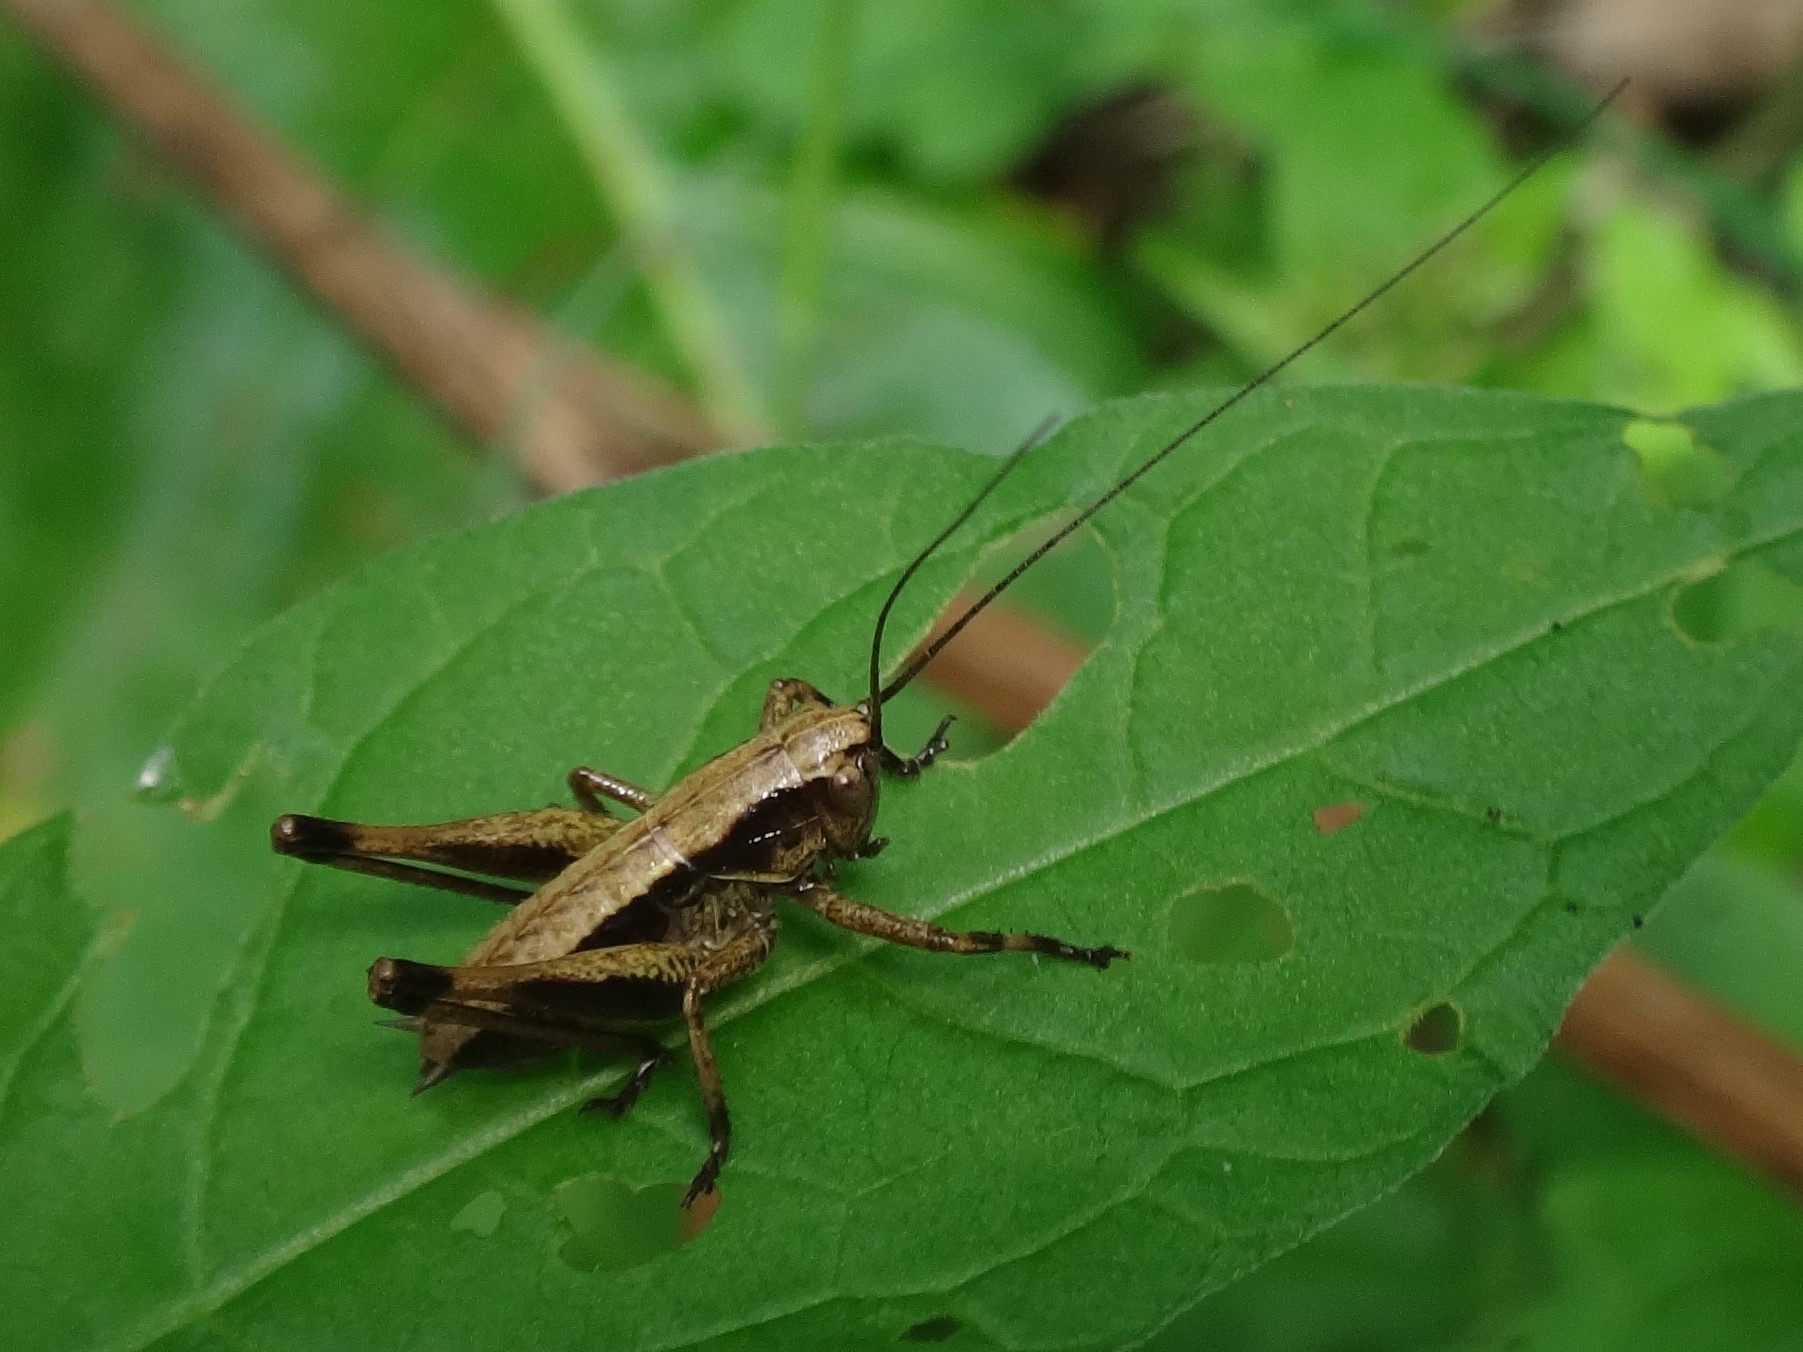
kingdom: Animalia
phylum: Arthropoda
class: Insecta
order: Orthoptera
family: Tettigoniidae
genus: Pholidoptera
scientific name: Pholidoptera griseoaptera
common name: Dark bush-cricket
